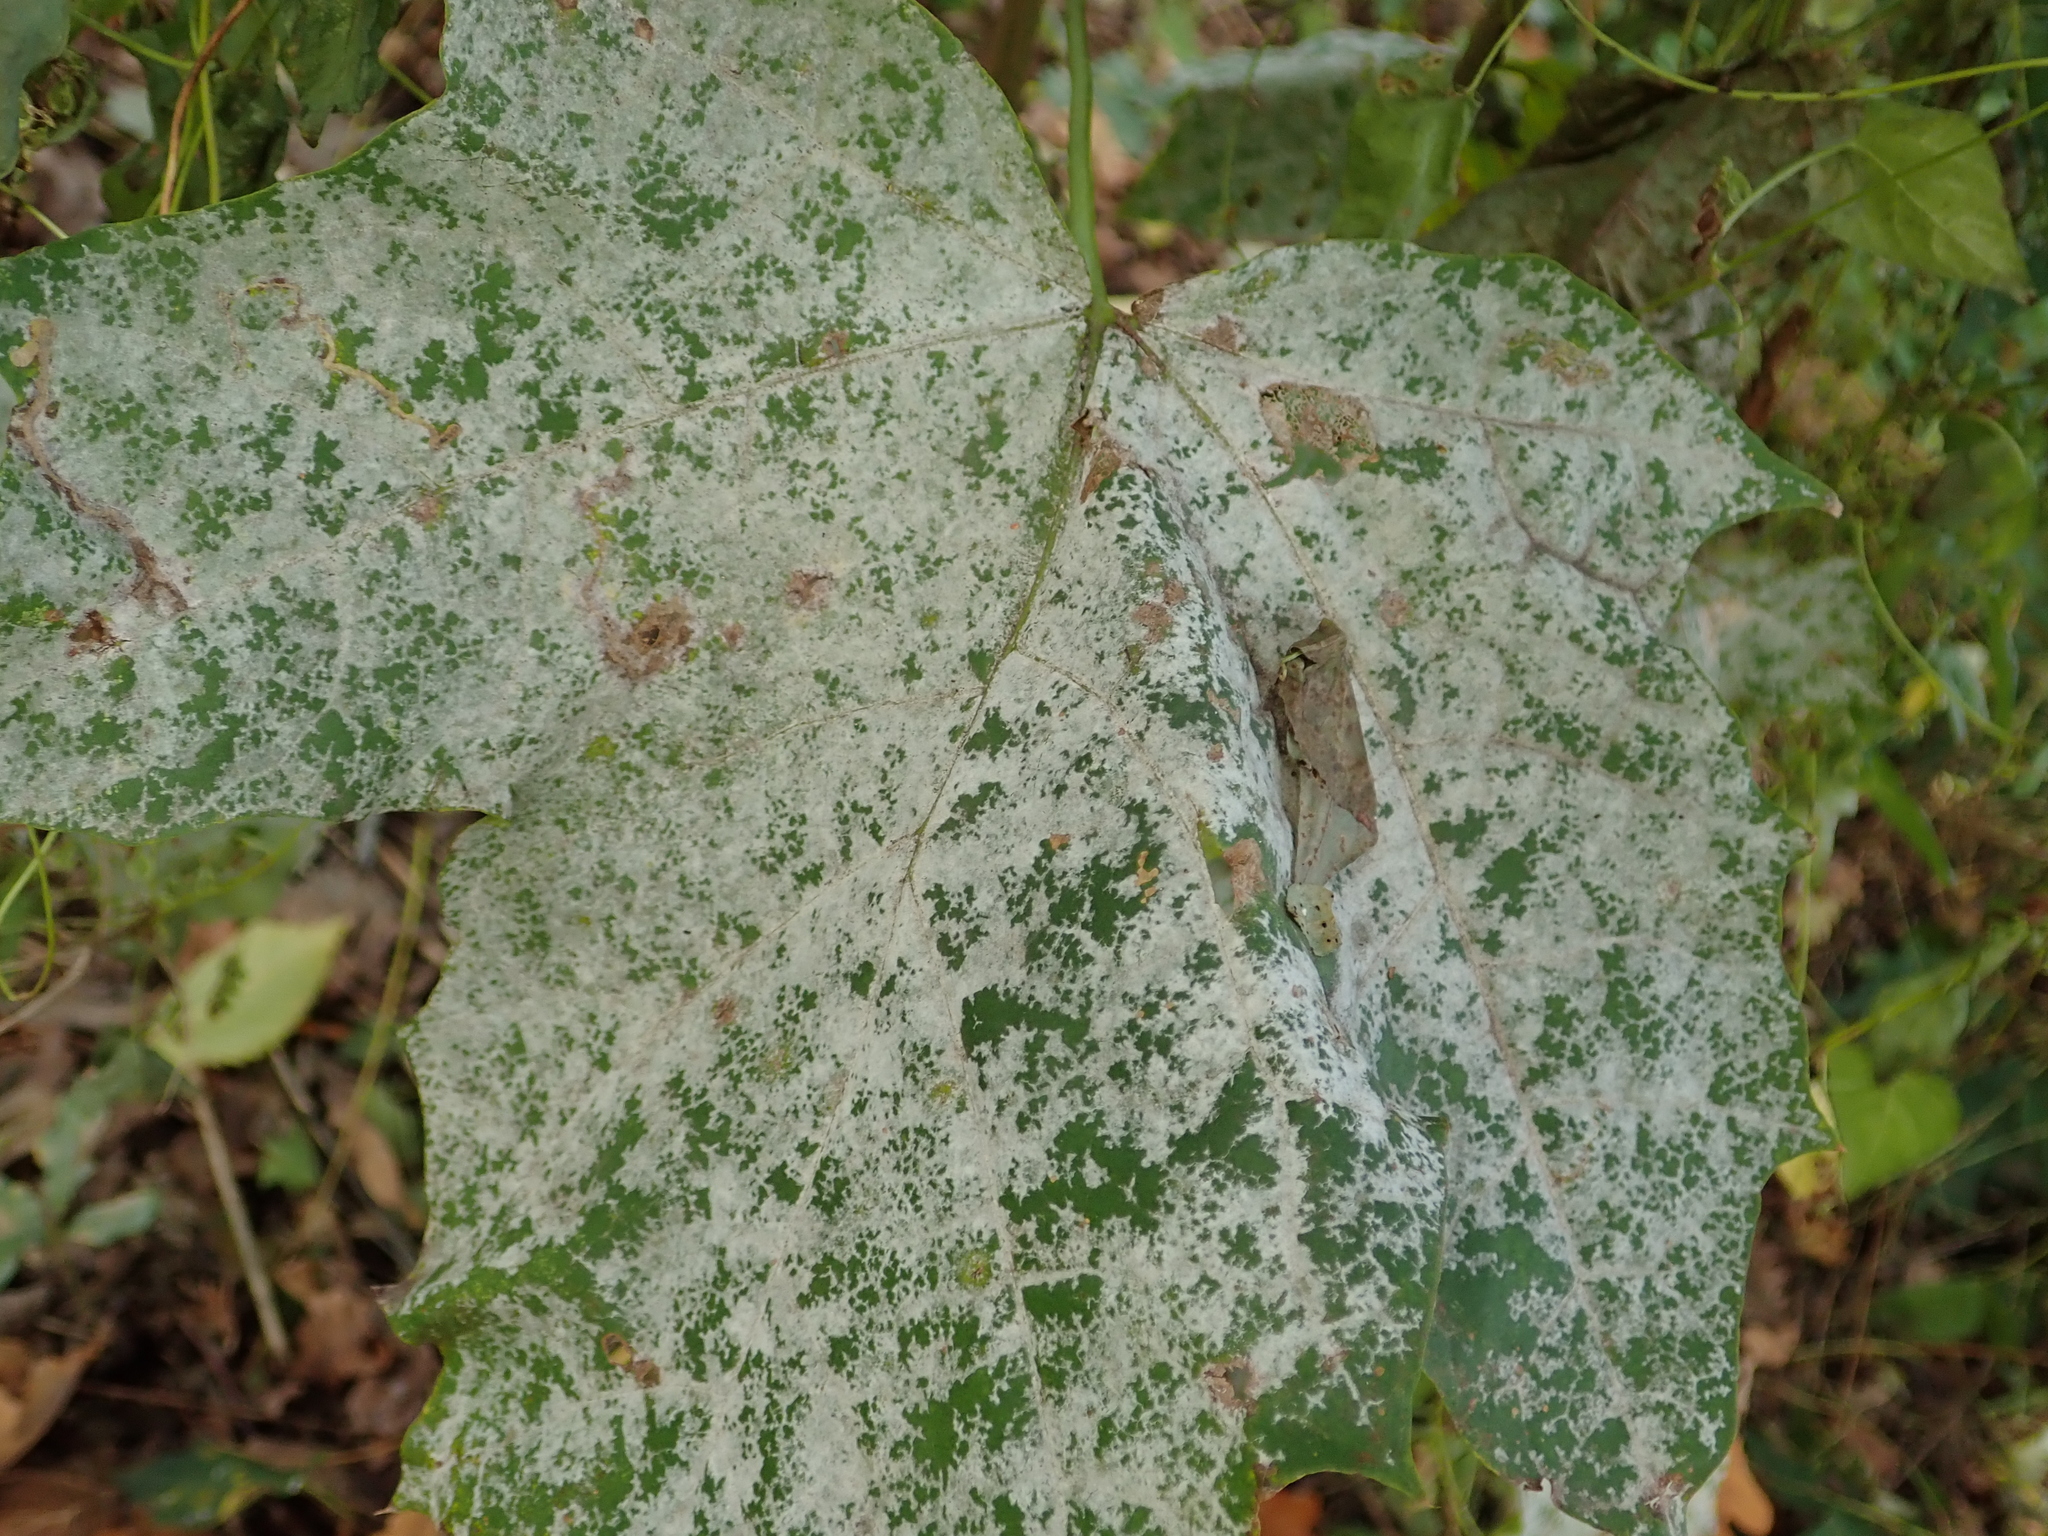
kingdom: Fungi
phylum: Ascomycota
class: Leotiomycetes
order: Helotiales
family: Erysiphaceae
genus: Sawadaea
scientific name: Sawadaea tulasnei
